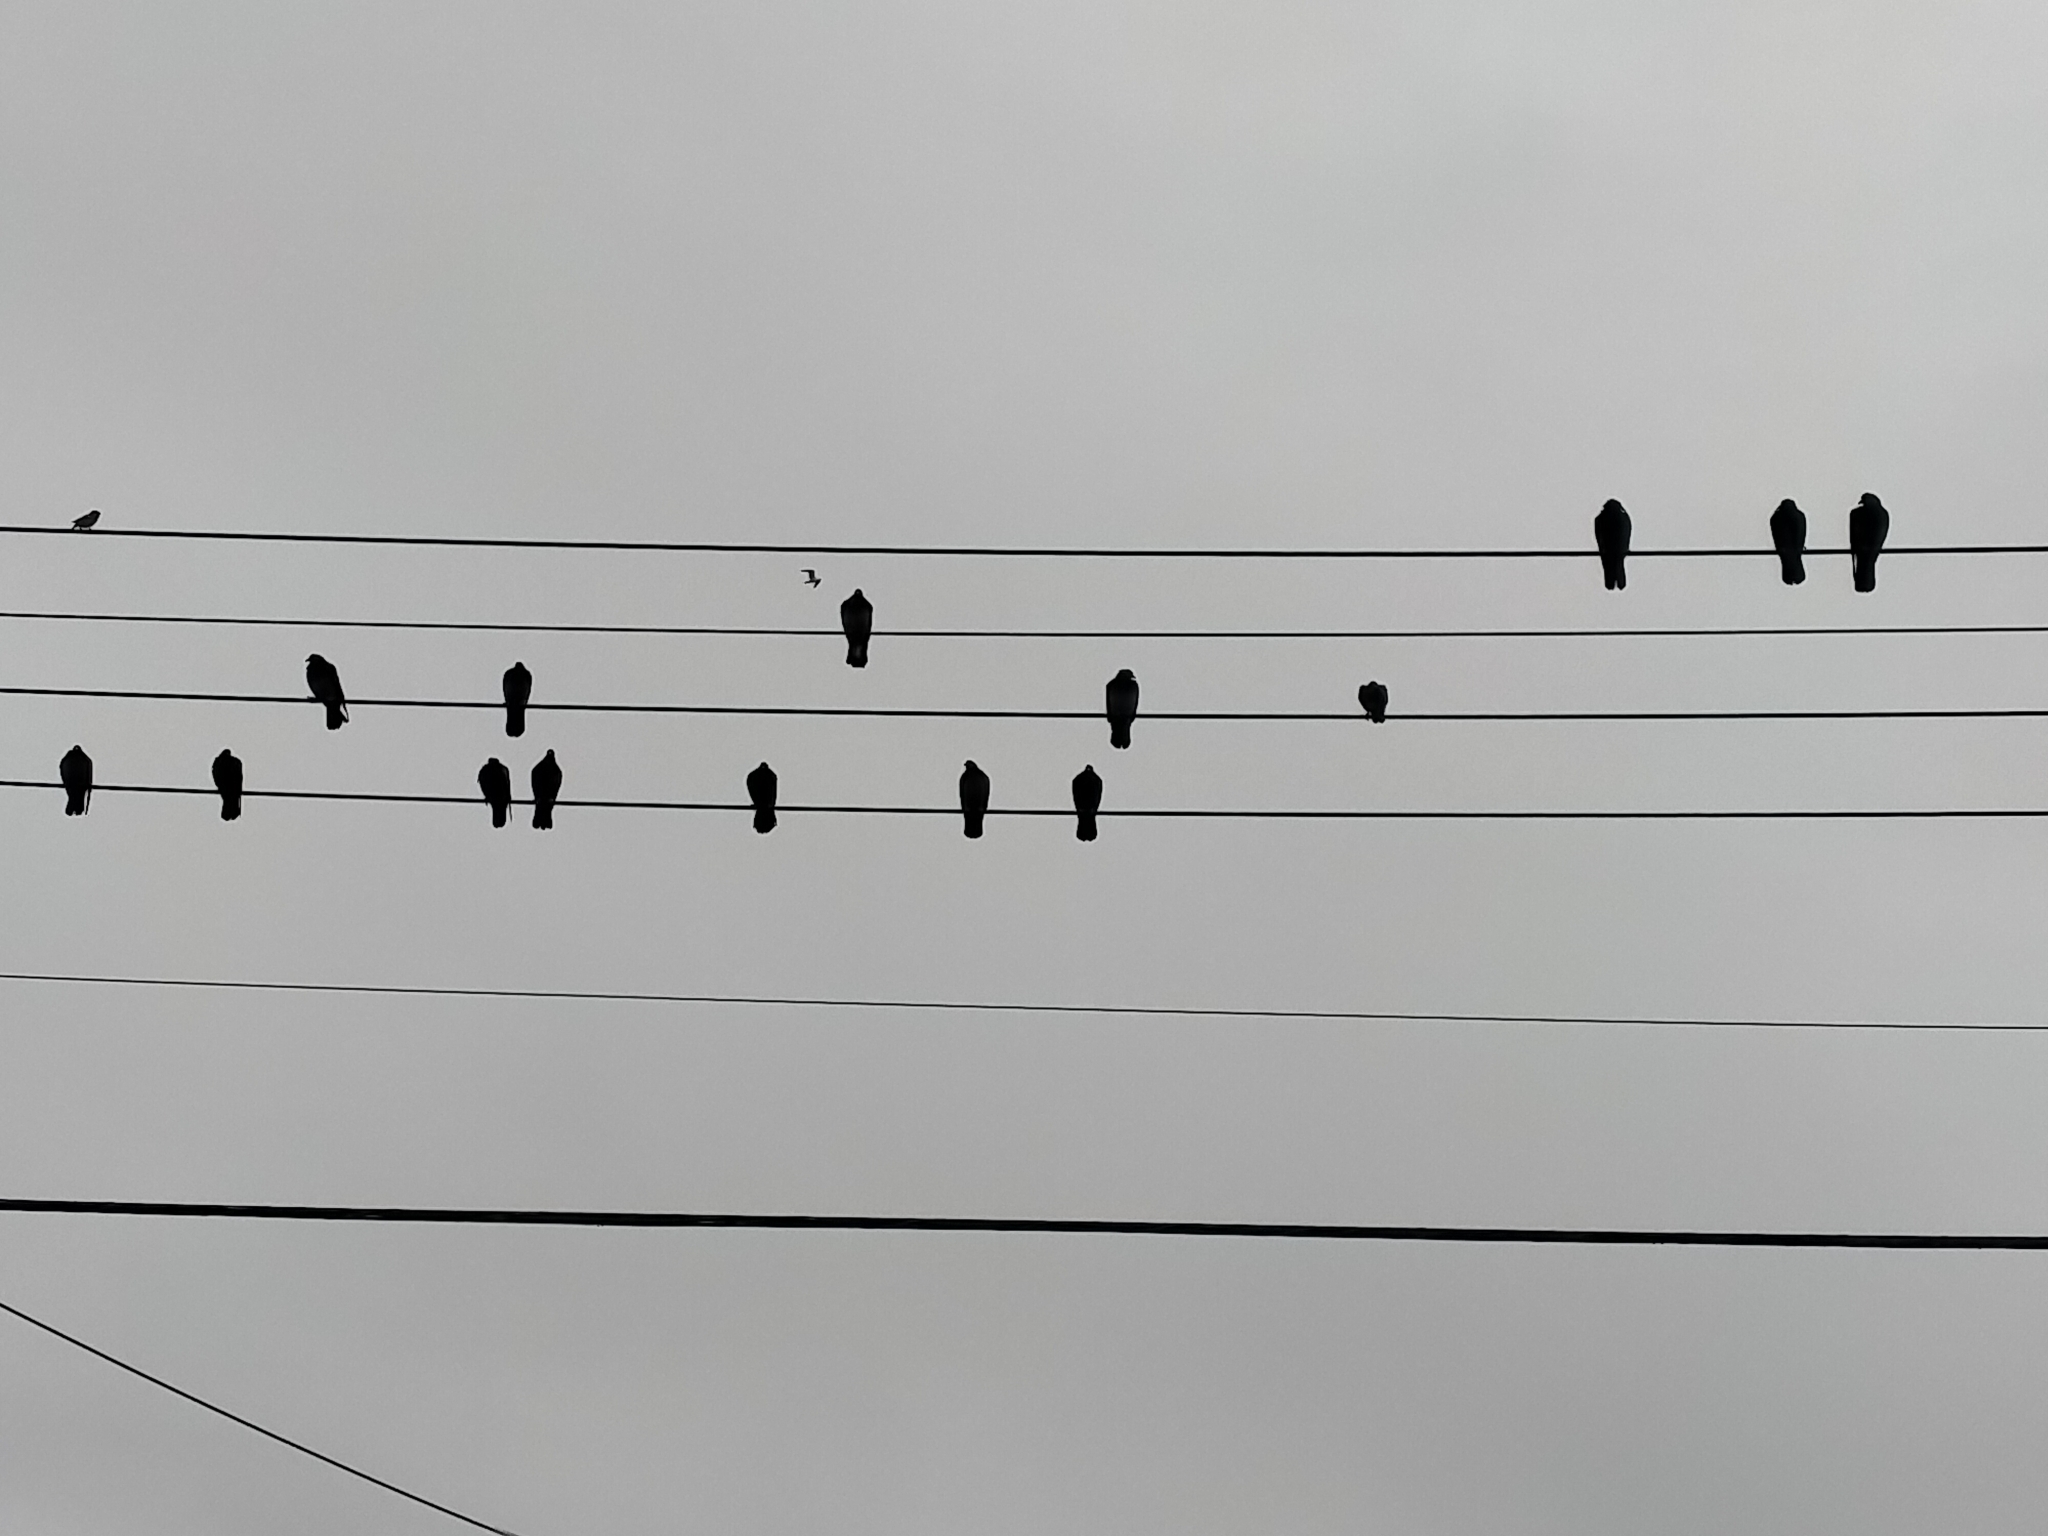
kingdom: Animalia
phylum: Chordata
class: Aves
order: Columbiformes
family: Columbidae
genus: Columba
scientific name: Columba livia
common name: Rock pigeon
